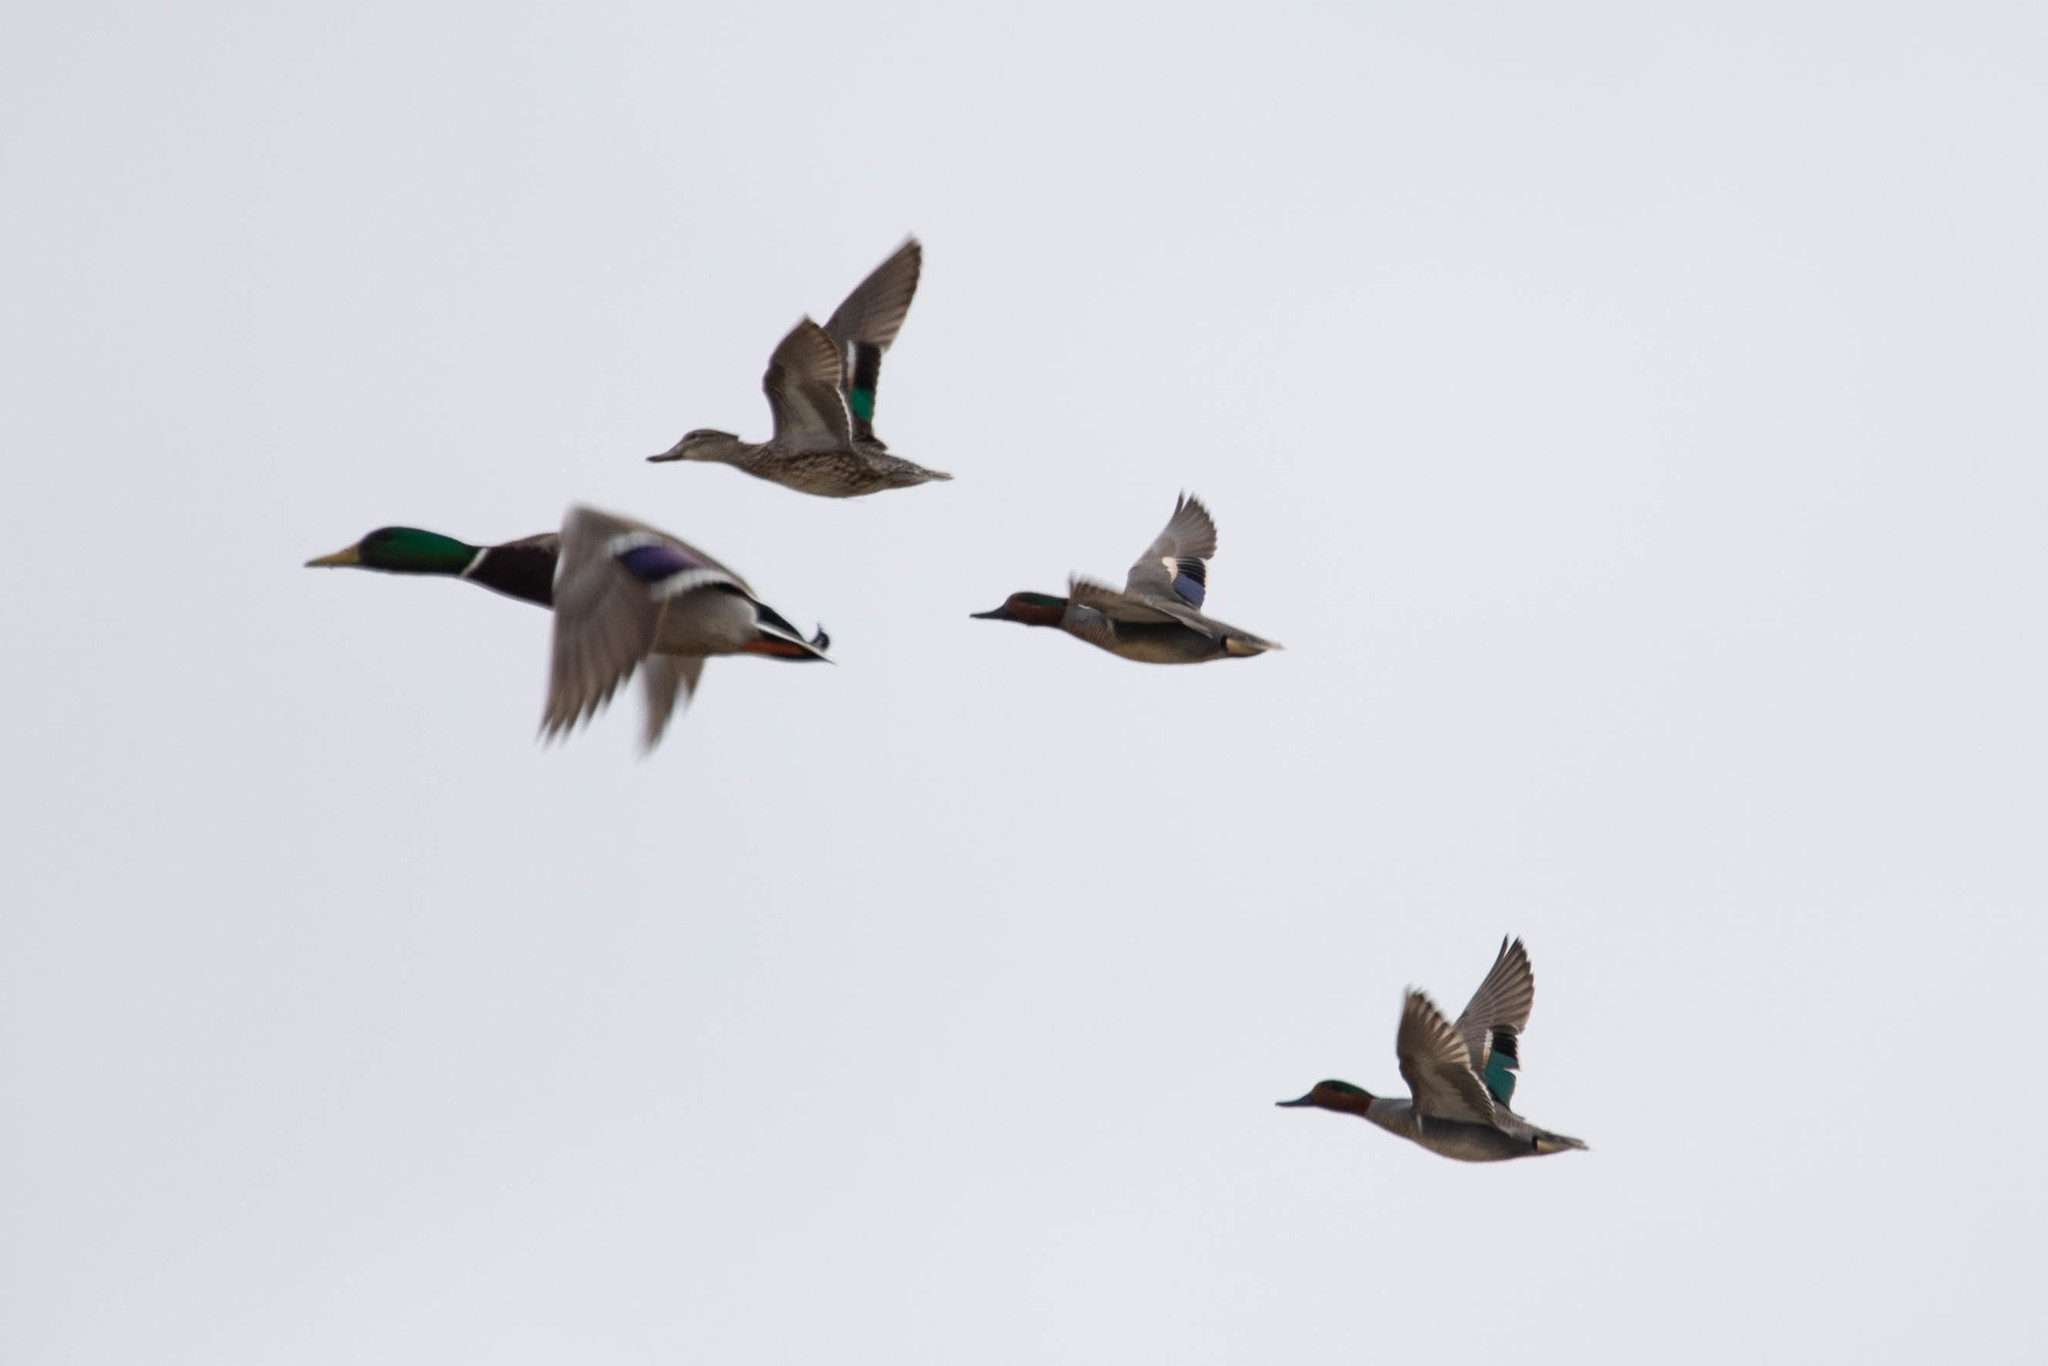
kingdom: Animalia
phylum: Chordata
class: Aves
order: Anseriformes
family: Anatidae
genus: Anas
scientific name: Anas carolinensis
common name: Green-winged teal
